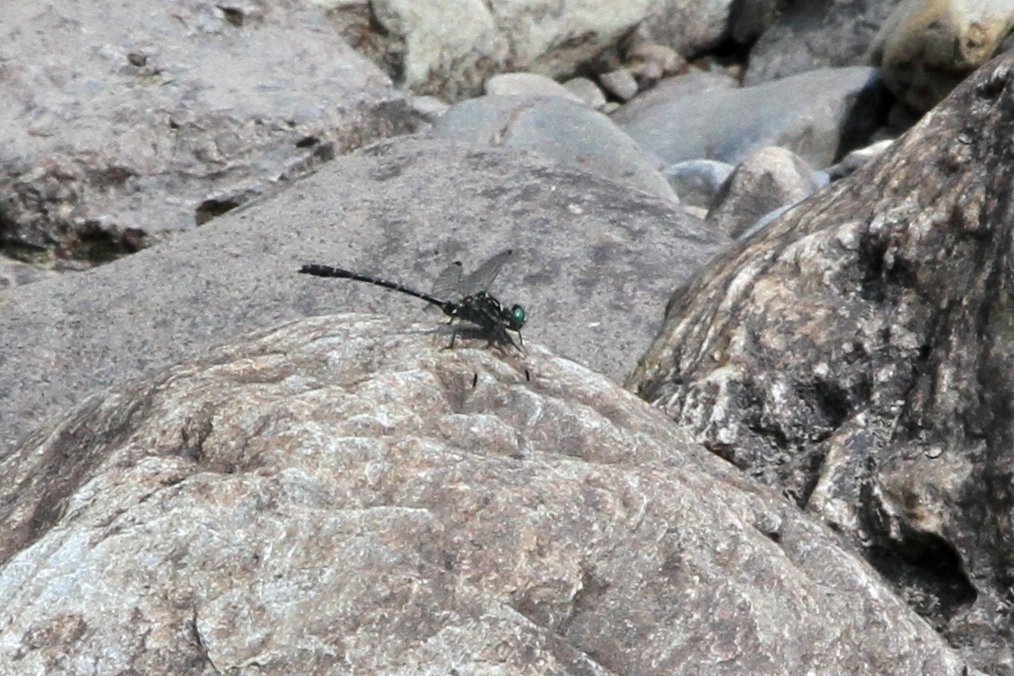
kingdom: Animalia
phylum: Arthropoda
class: Insecta
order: Odonata
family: Gomphidae
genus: Stylogomphus
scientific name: Stylogomphus albistylus
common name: Eastern least clubtail
